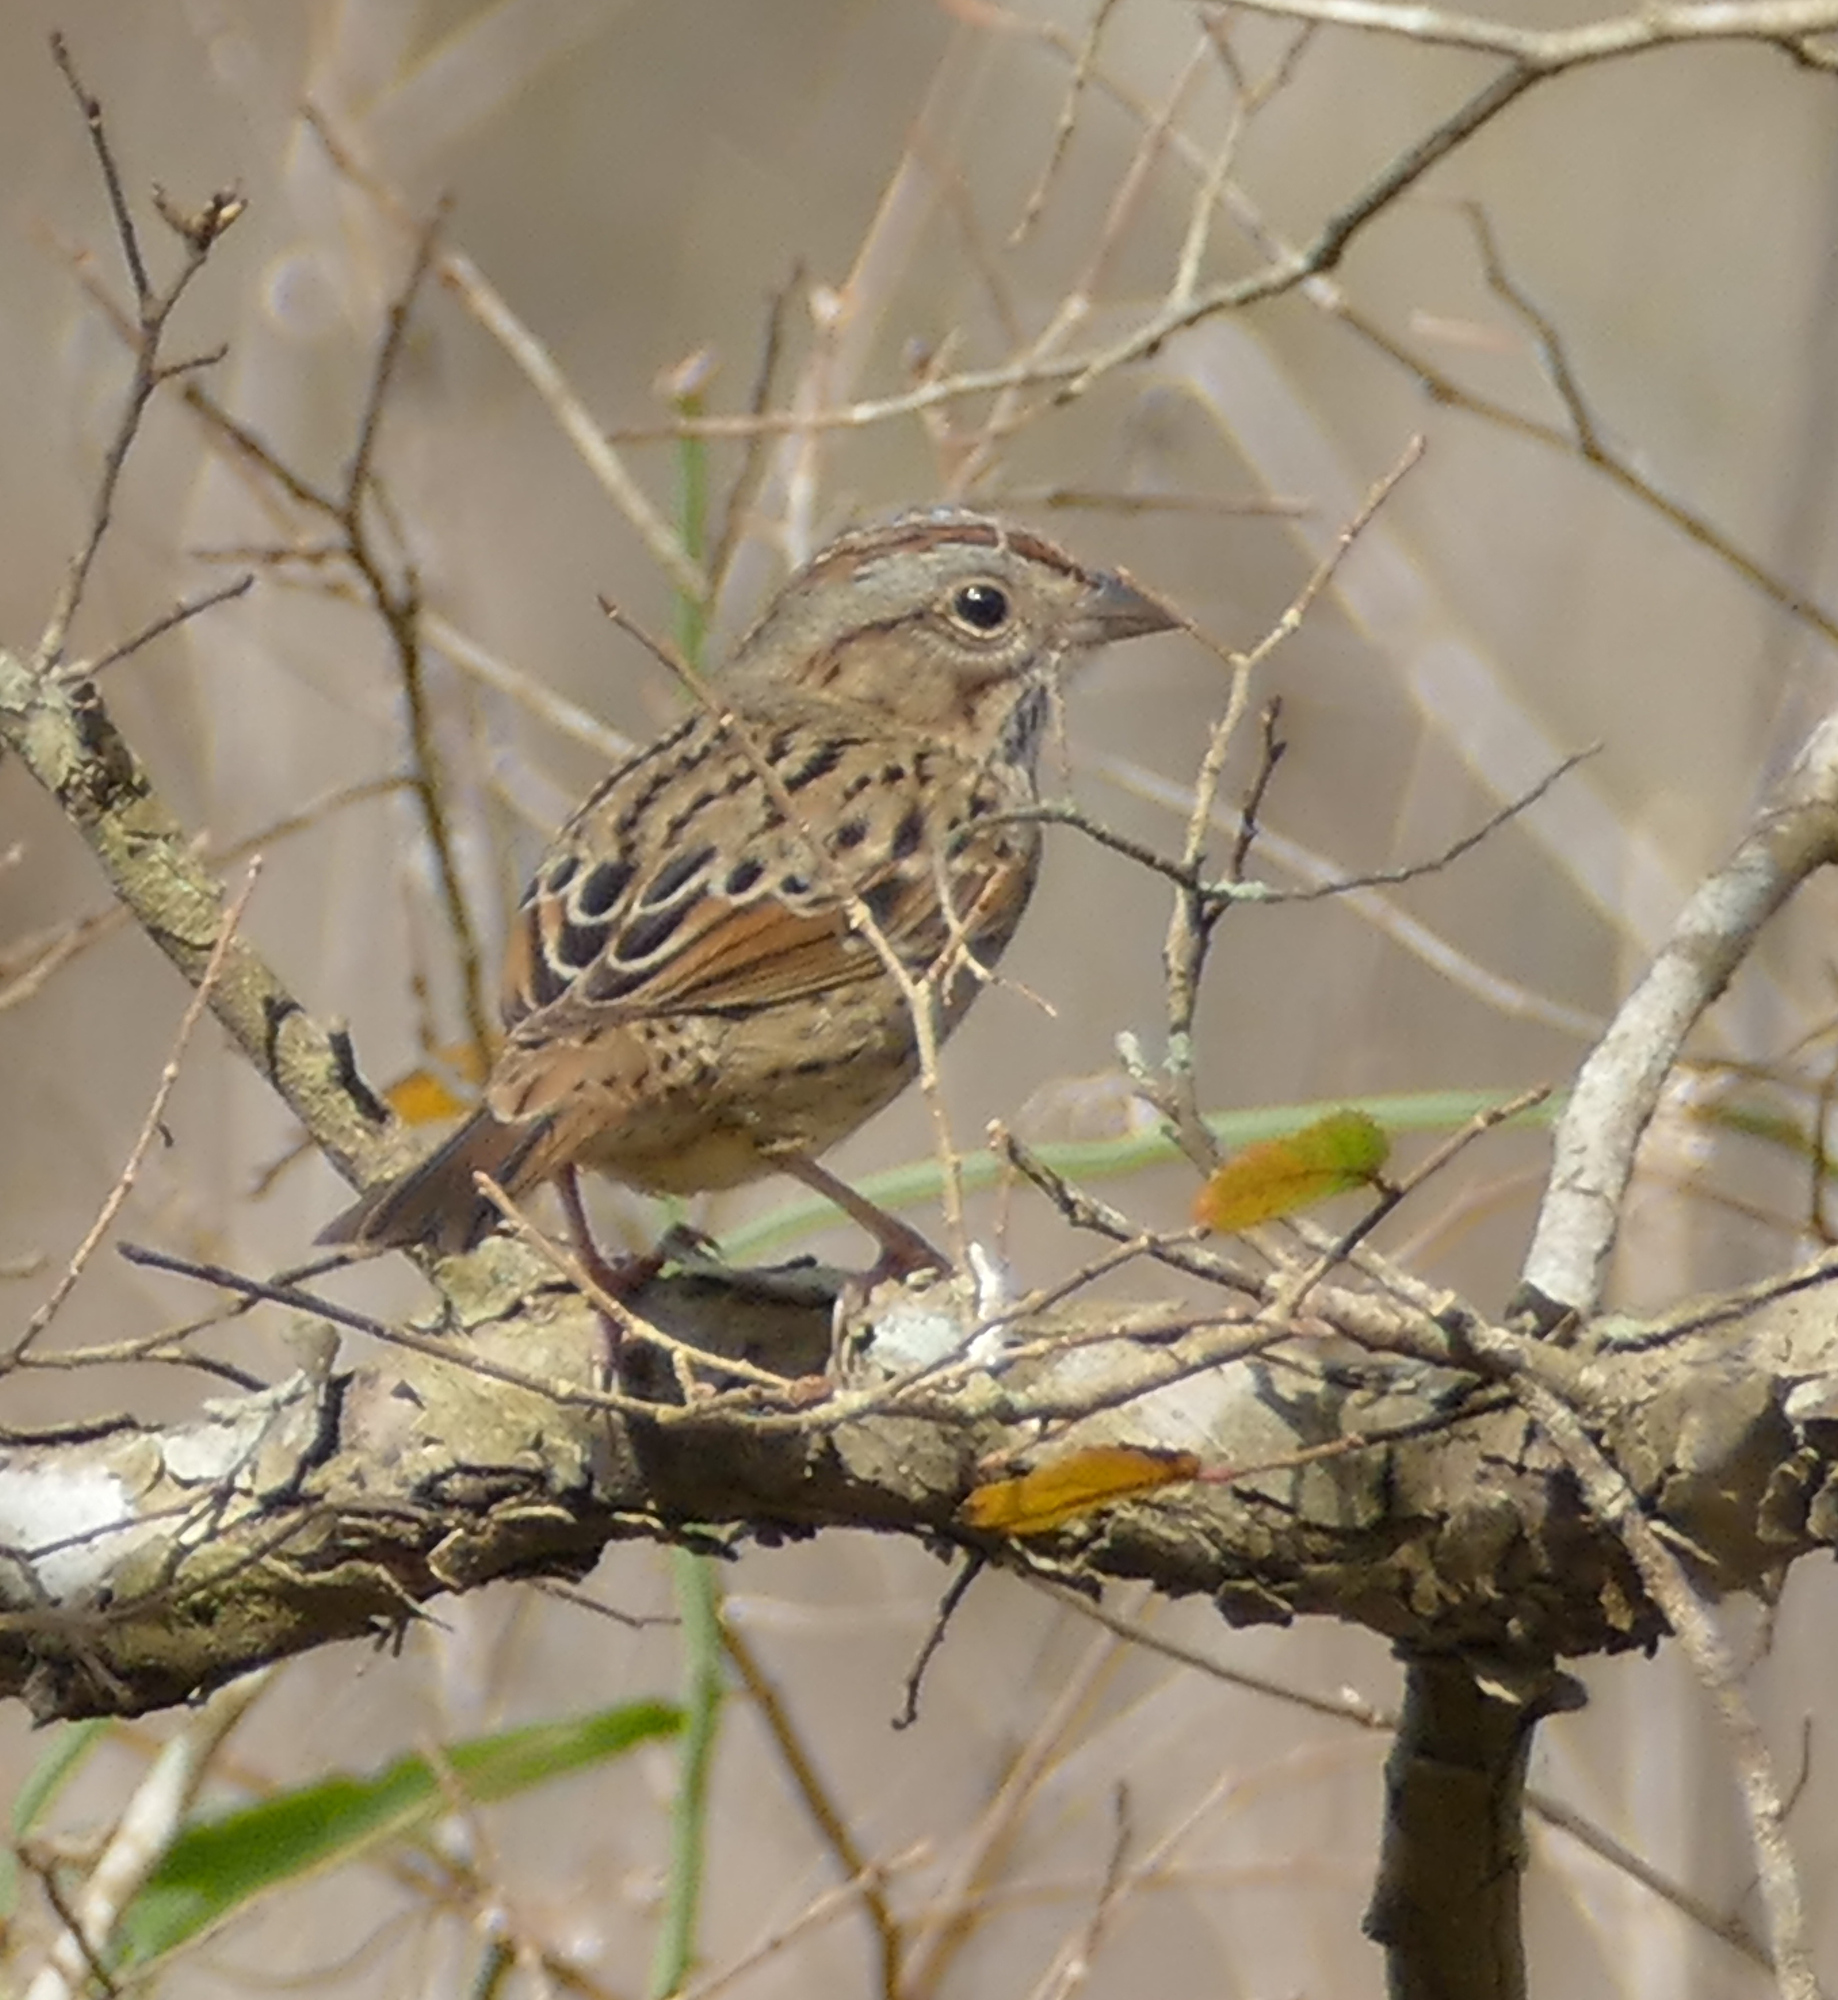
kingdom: Animalia
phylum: Chordata
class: Aves
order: Passeriformes
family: Passerellidae
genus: Melospiza
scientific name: Melospiza lincolnii
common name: Lincoln's sparrow
